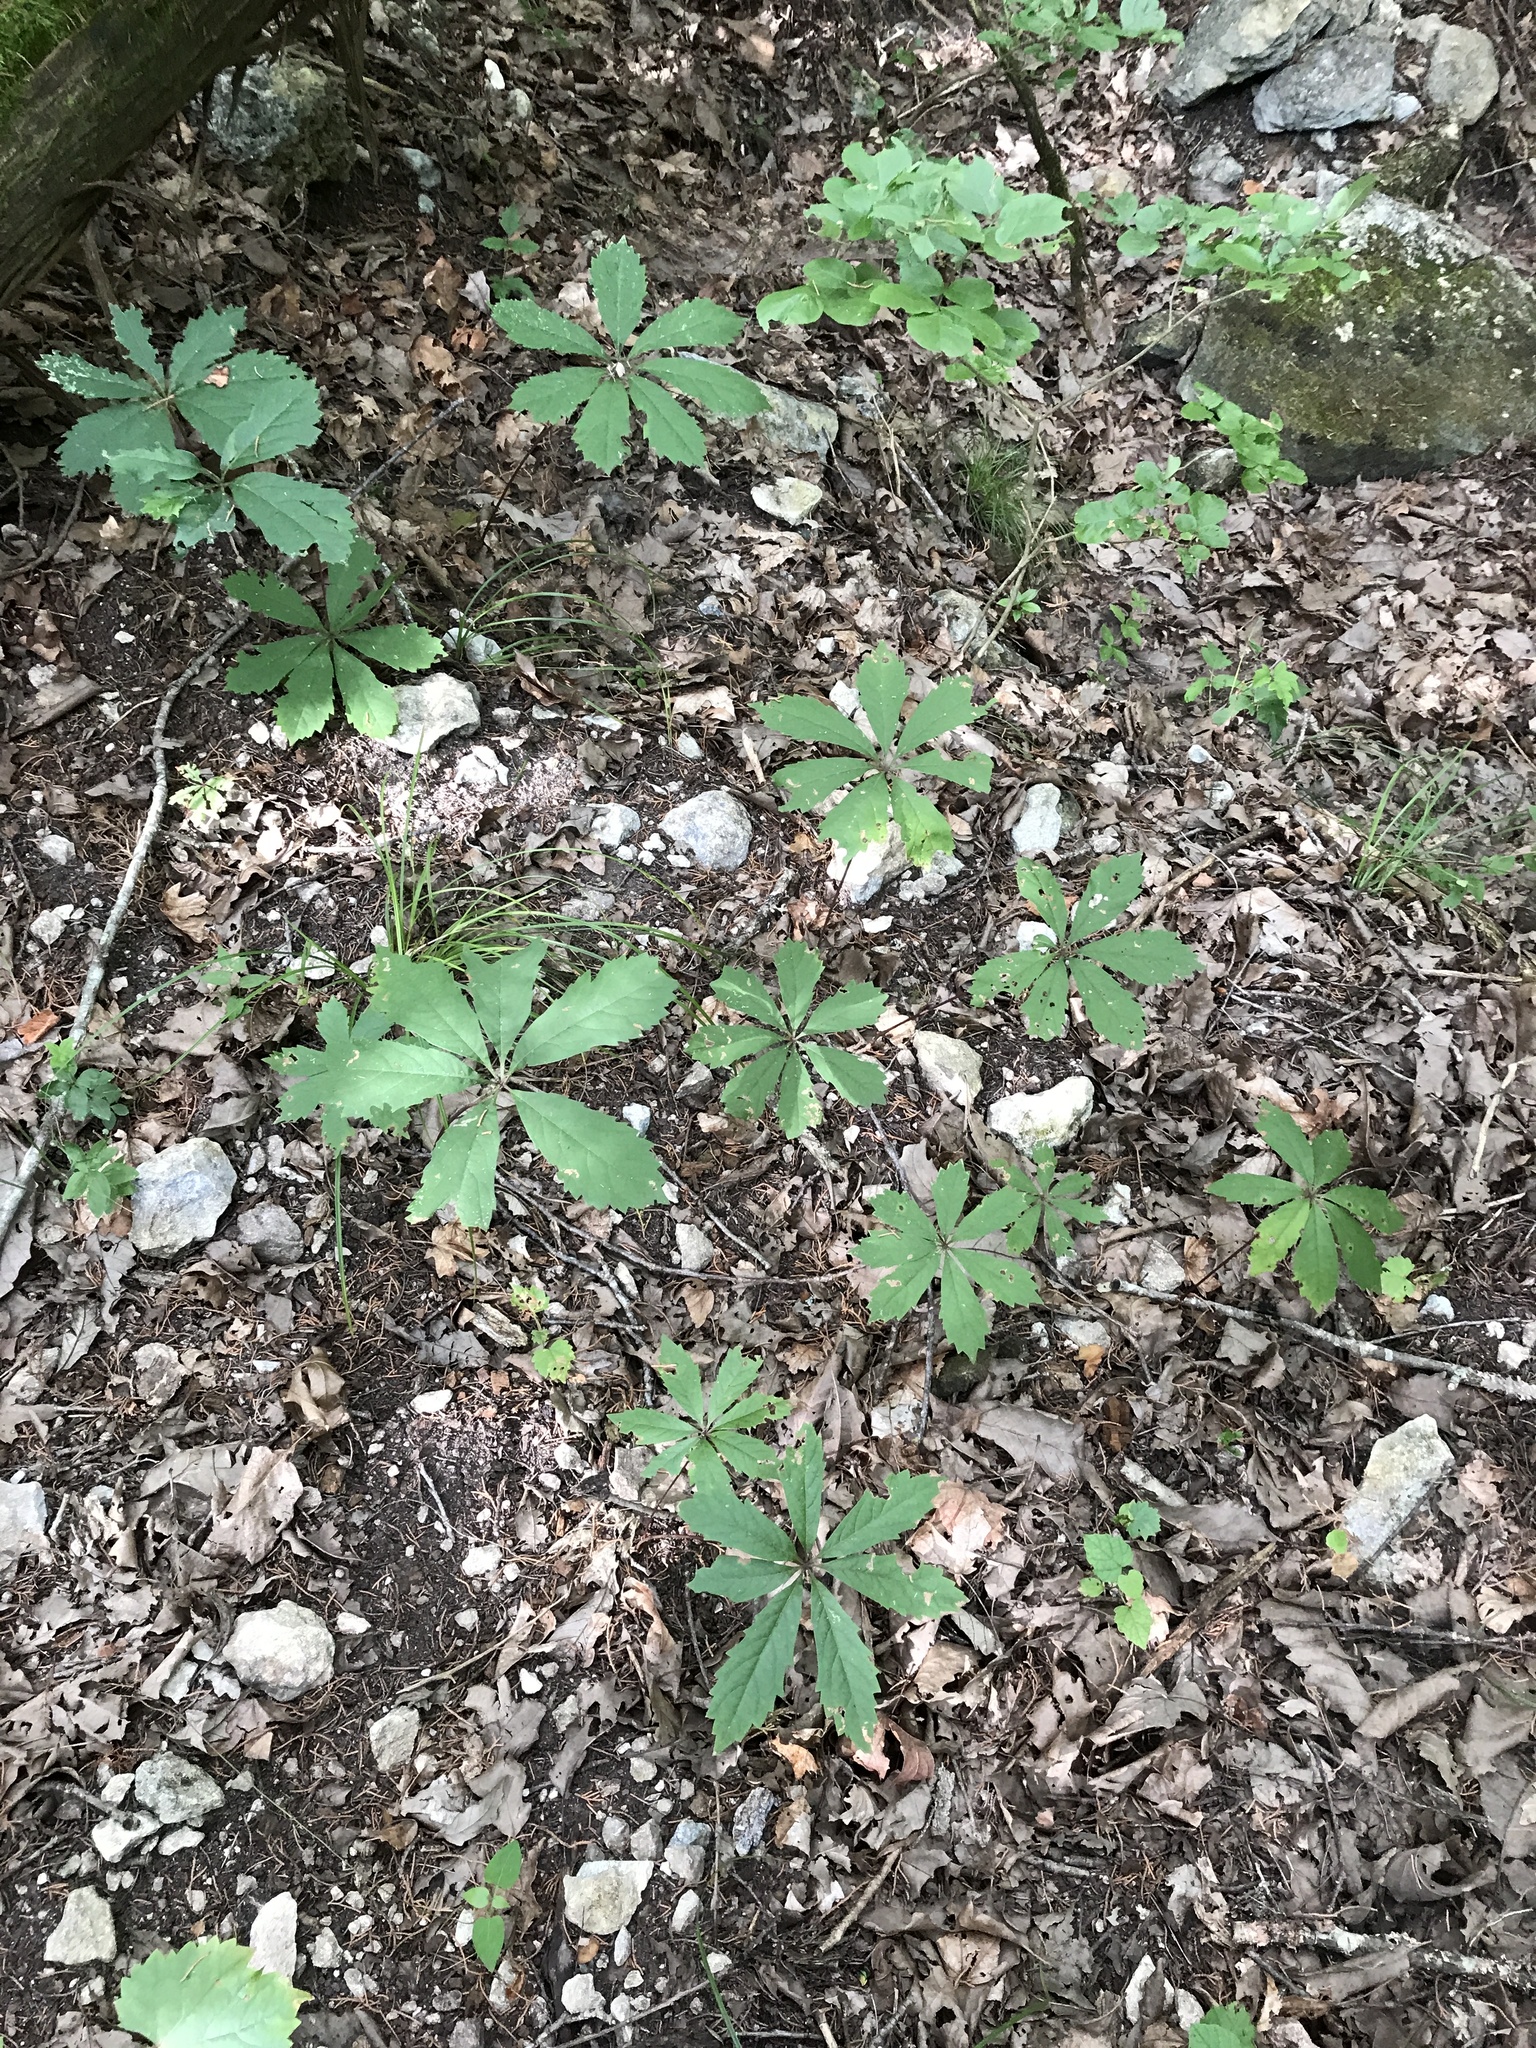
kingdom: Plantae
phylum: Tracheophyta
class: Magnoliopsida
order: Vitales
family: Vitaceae
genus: Parthenocissus
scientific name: Parthenocissus heptaphylla
